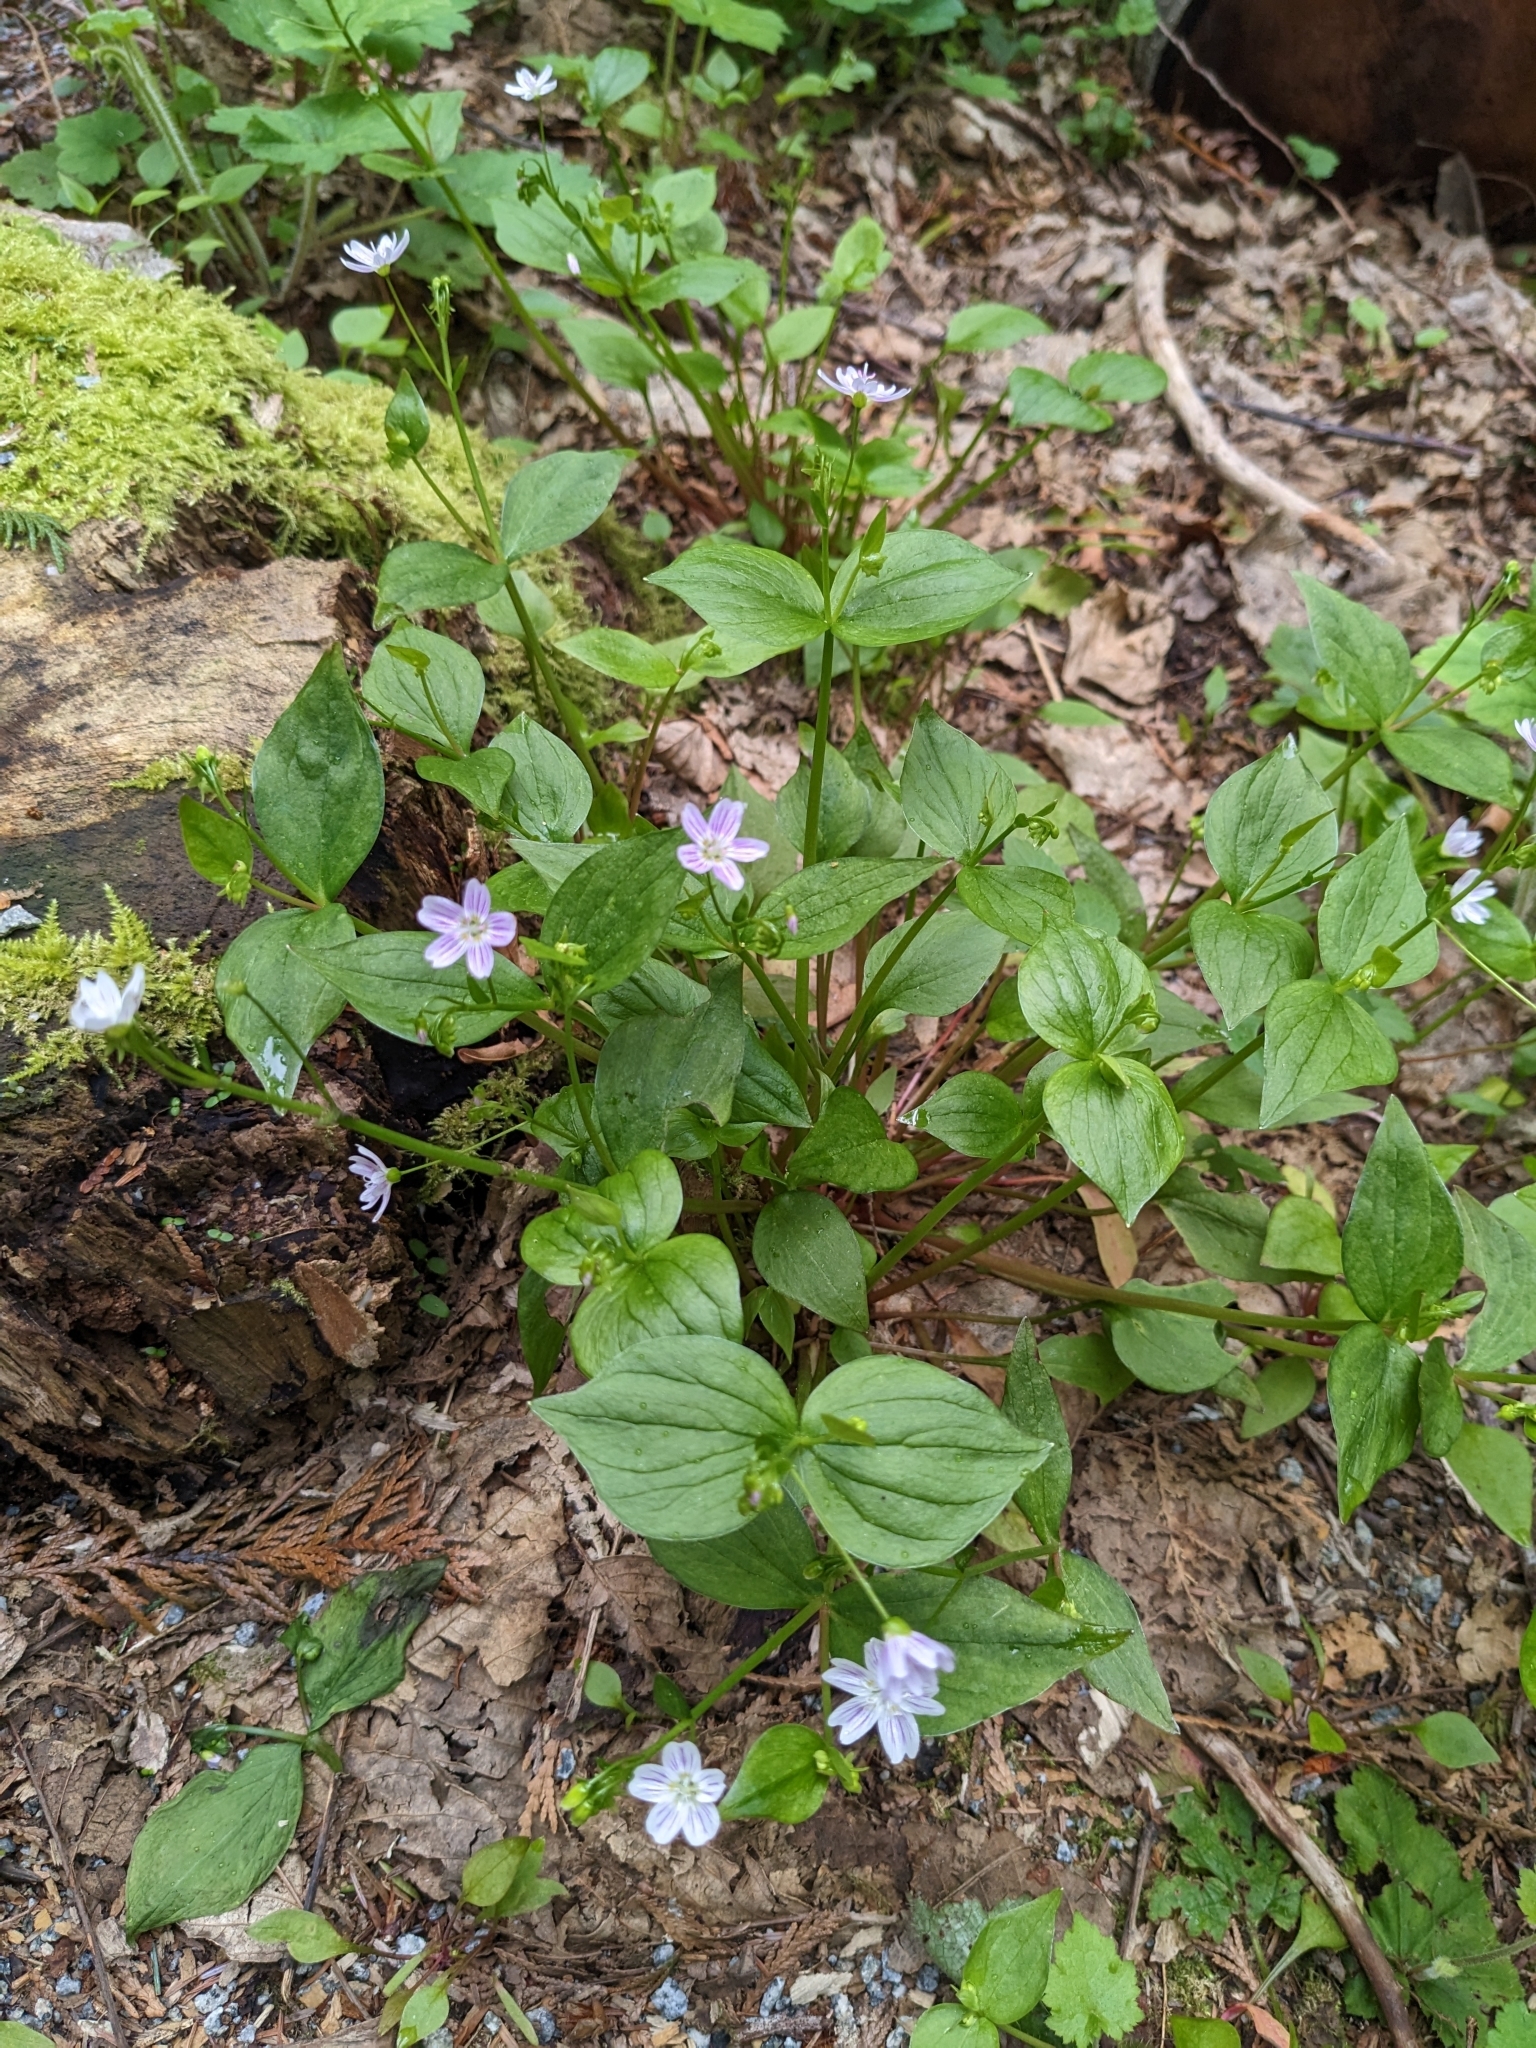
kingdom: Plantae
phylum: Tracheophyta
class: Magnoliopsida
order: Caryophyllales
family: Montiaceae
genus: Claytonia
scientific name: Claytonia sibirica
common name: Pink purslane
